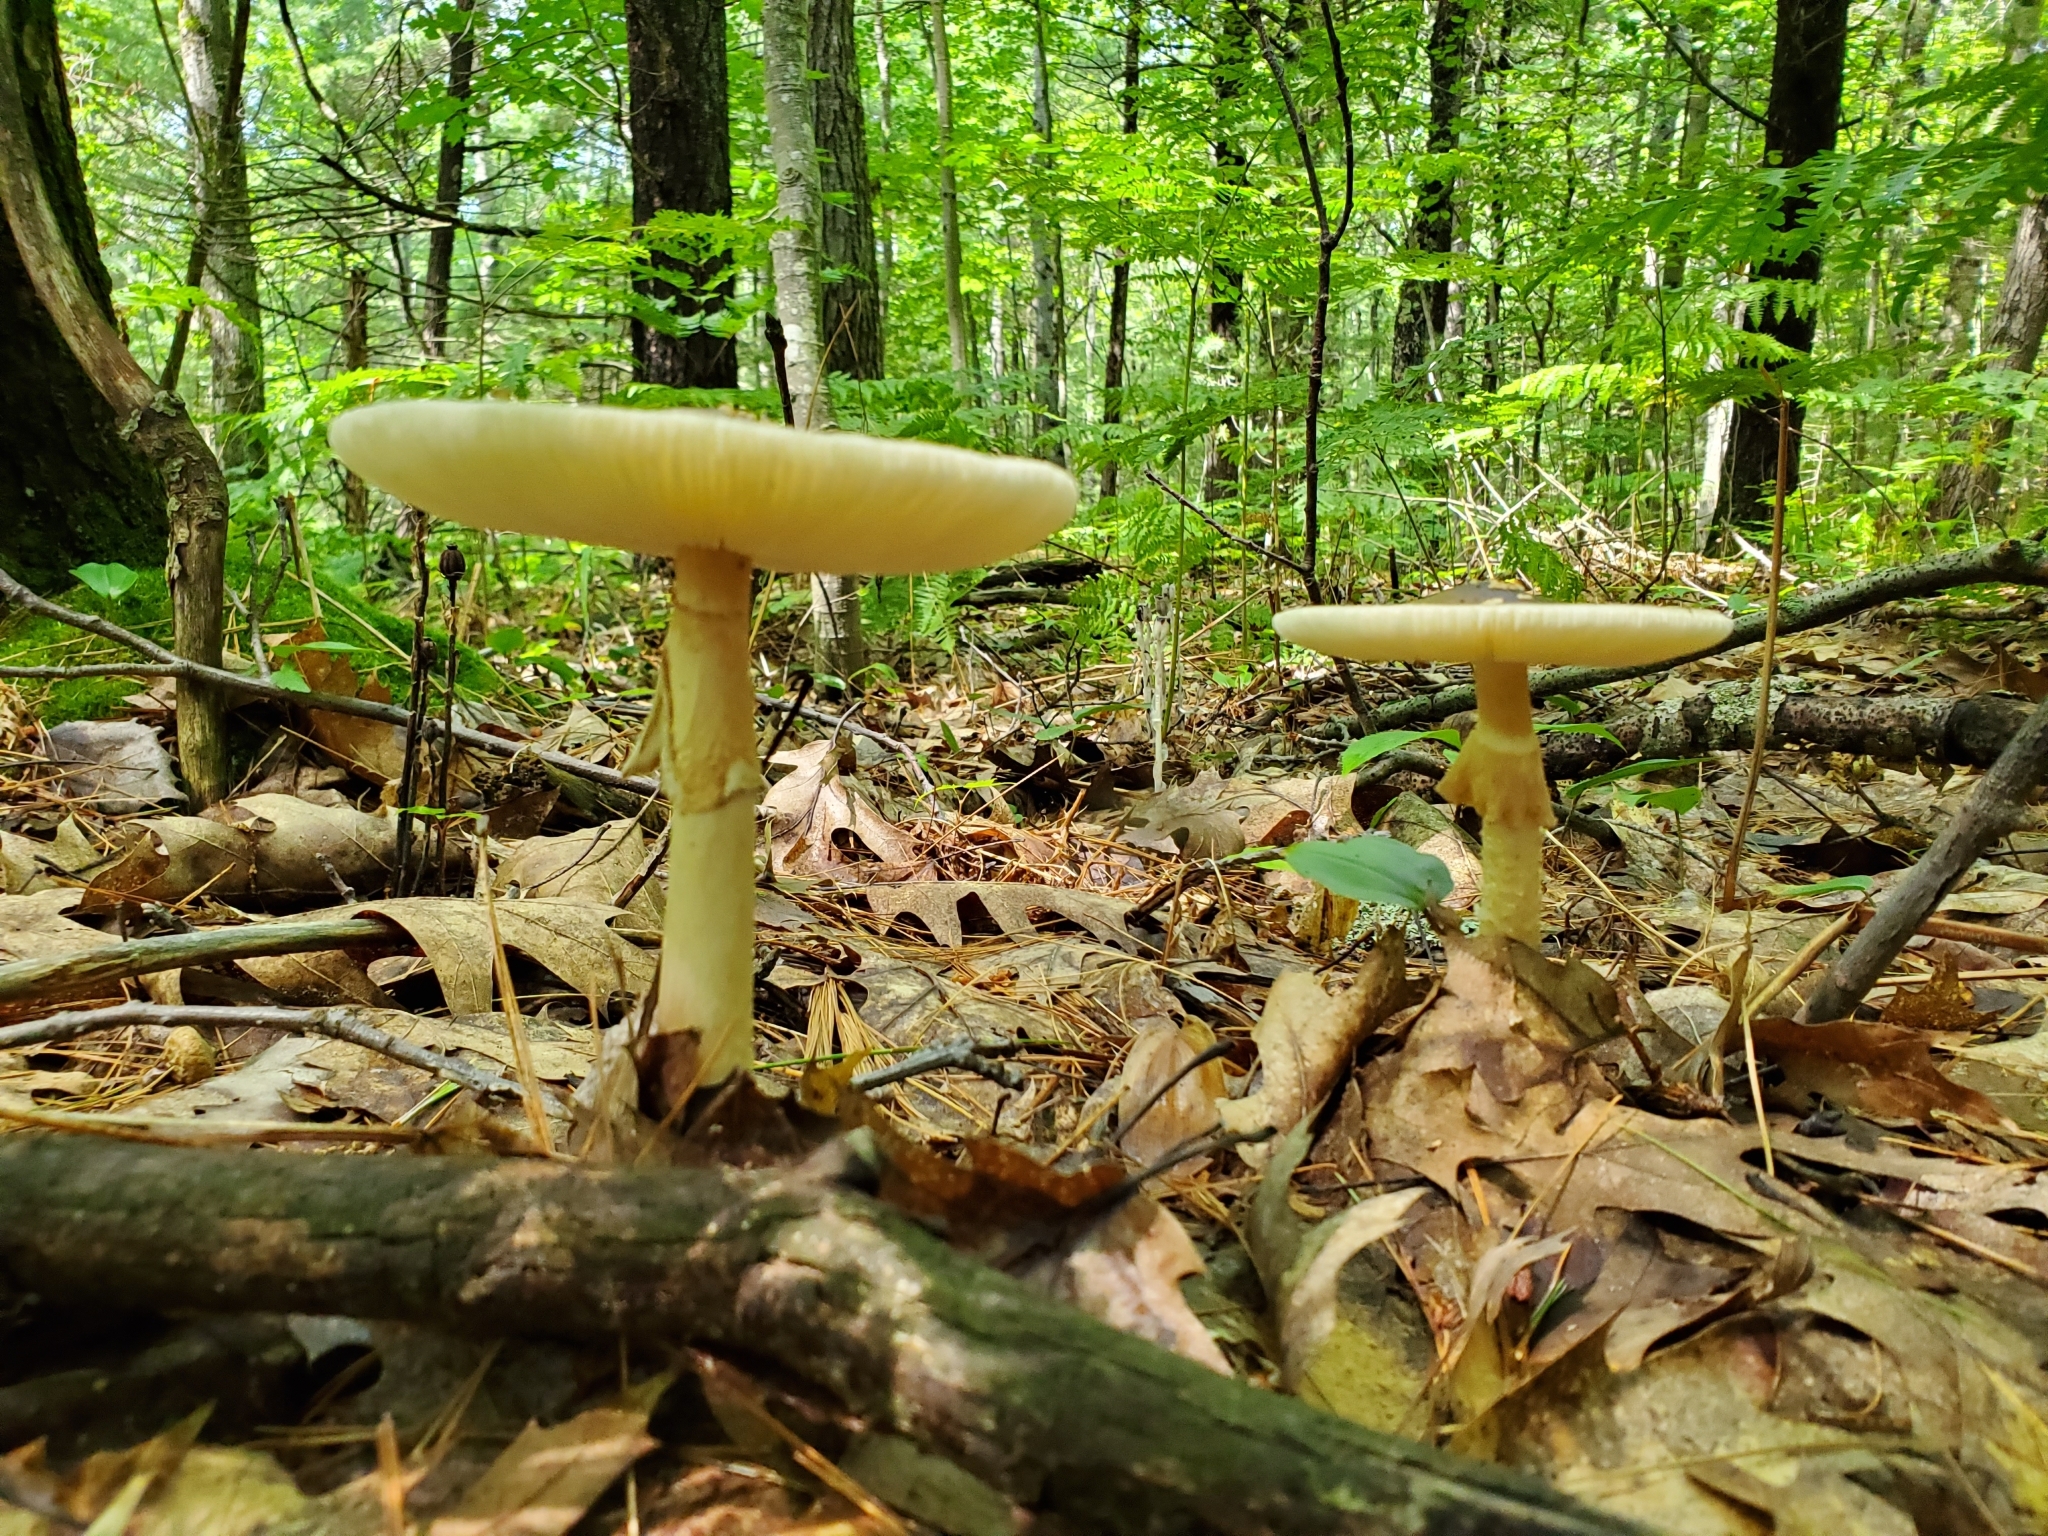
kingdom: Fungi
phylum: Basidiomycota
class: Agaricomycetes
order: Agaricales
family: Amanitaceae
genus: Amanita
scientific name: Amanita brunnescens
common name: Brown american star-footed amanita
